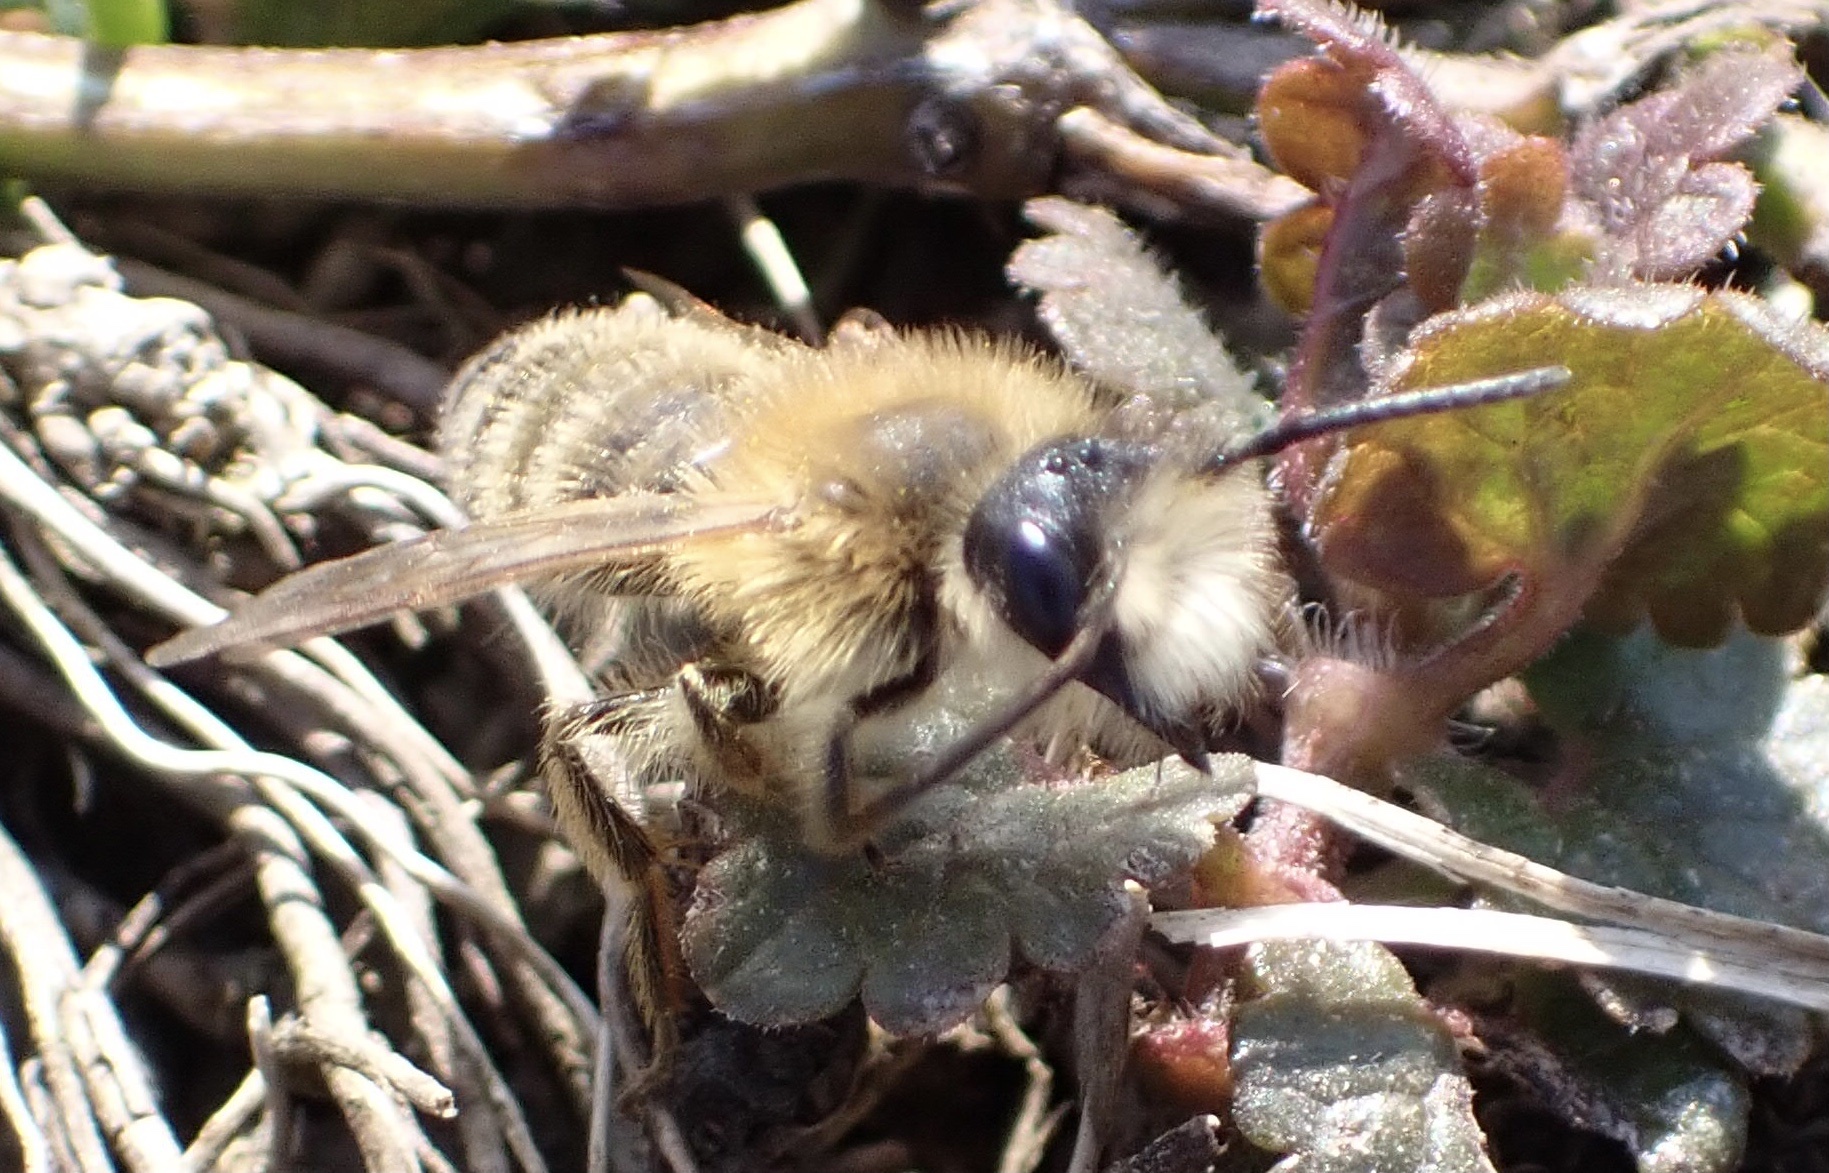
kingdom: Animalia
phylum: Arthropoda
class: Insecta
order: Hymenoptera
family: Andrenidae
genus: Andrena
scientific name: Andrena gravida
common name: White-bellied mining bee
